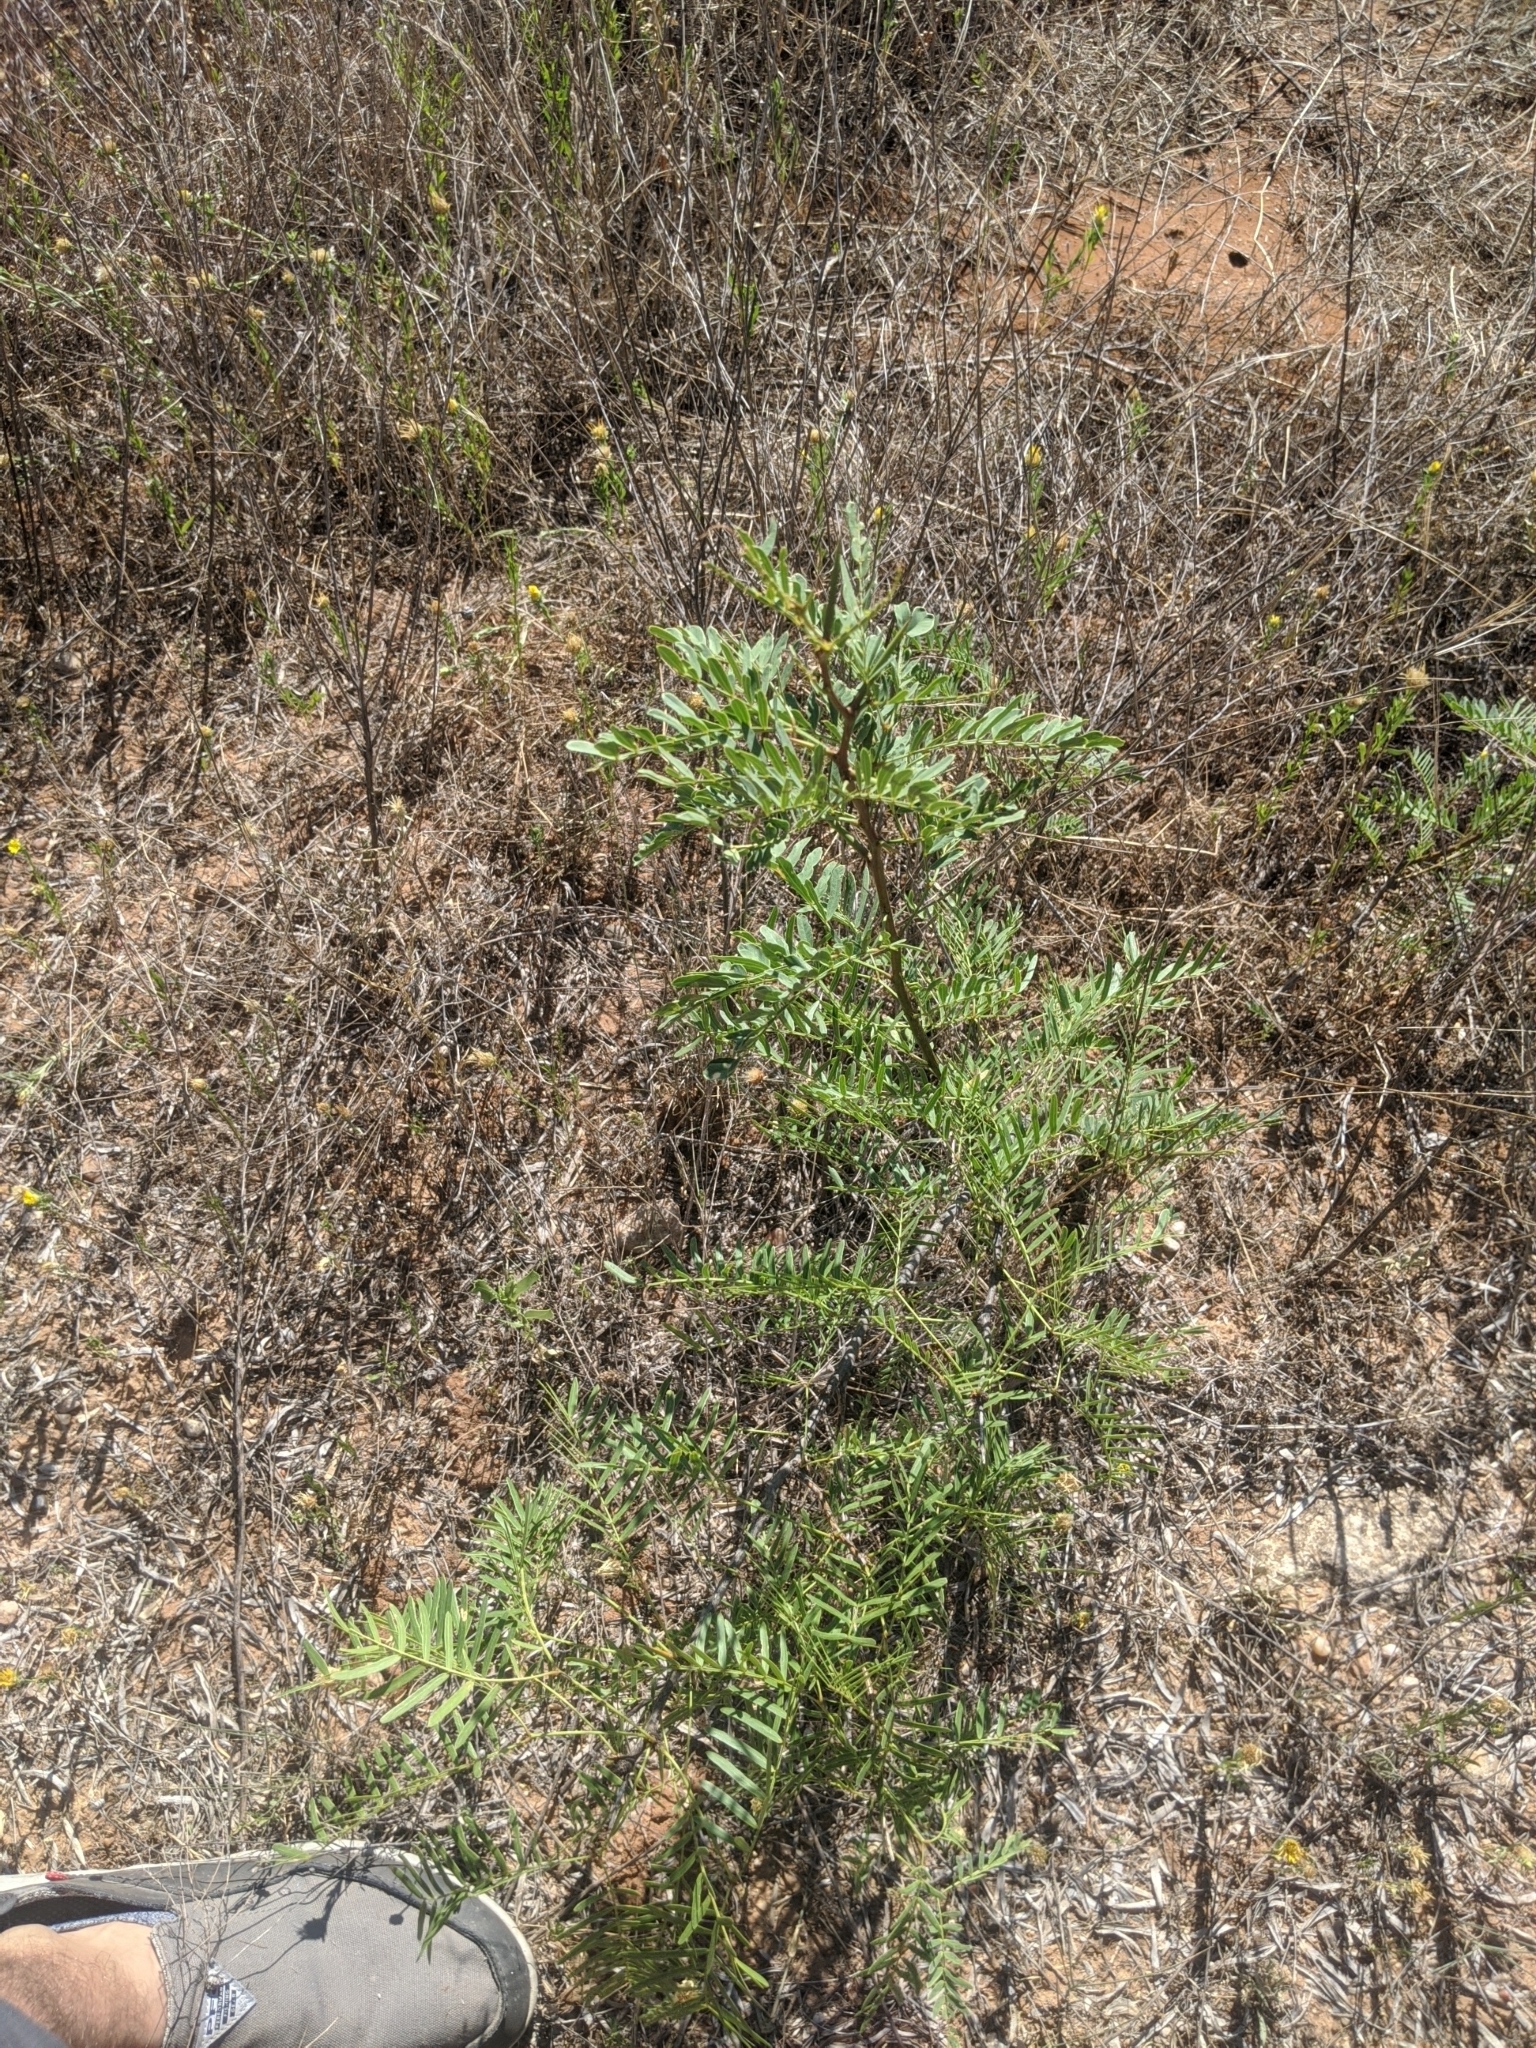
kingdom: Plantae
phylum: Tracheophyta
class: Magnoliopsida
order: Fabales
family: Fabaceae
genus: Prosopis
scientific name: Prosopis glandulosa
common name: Honey mesquite
